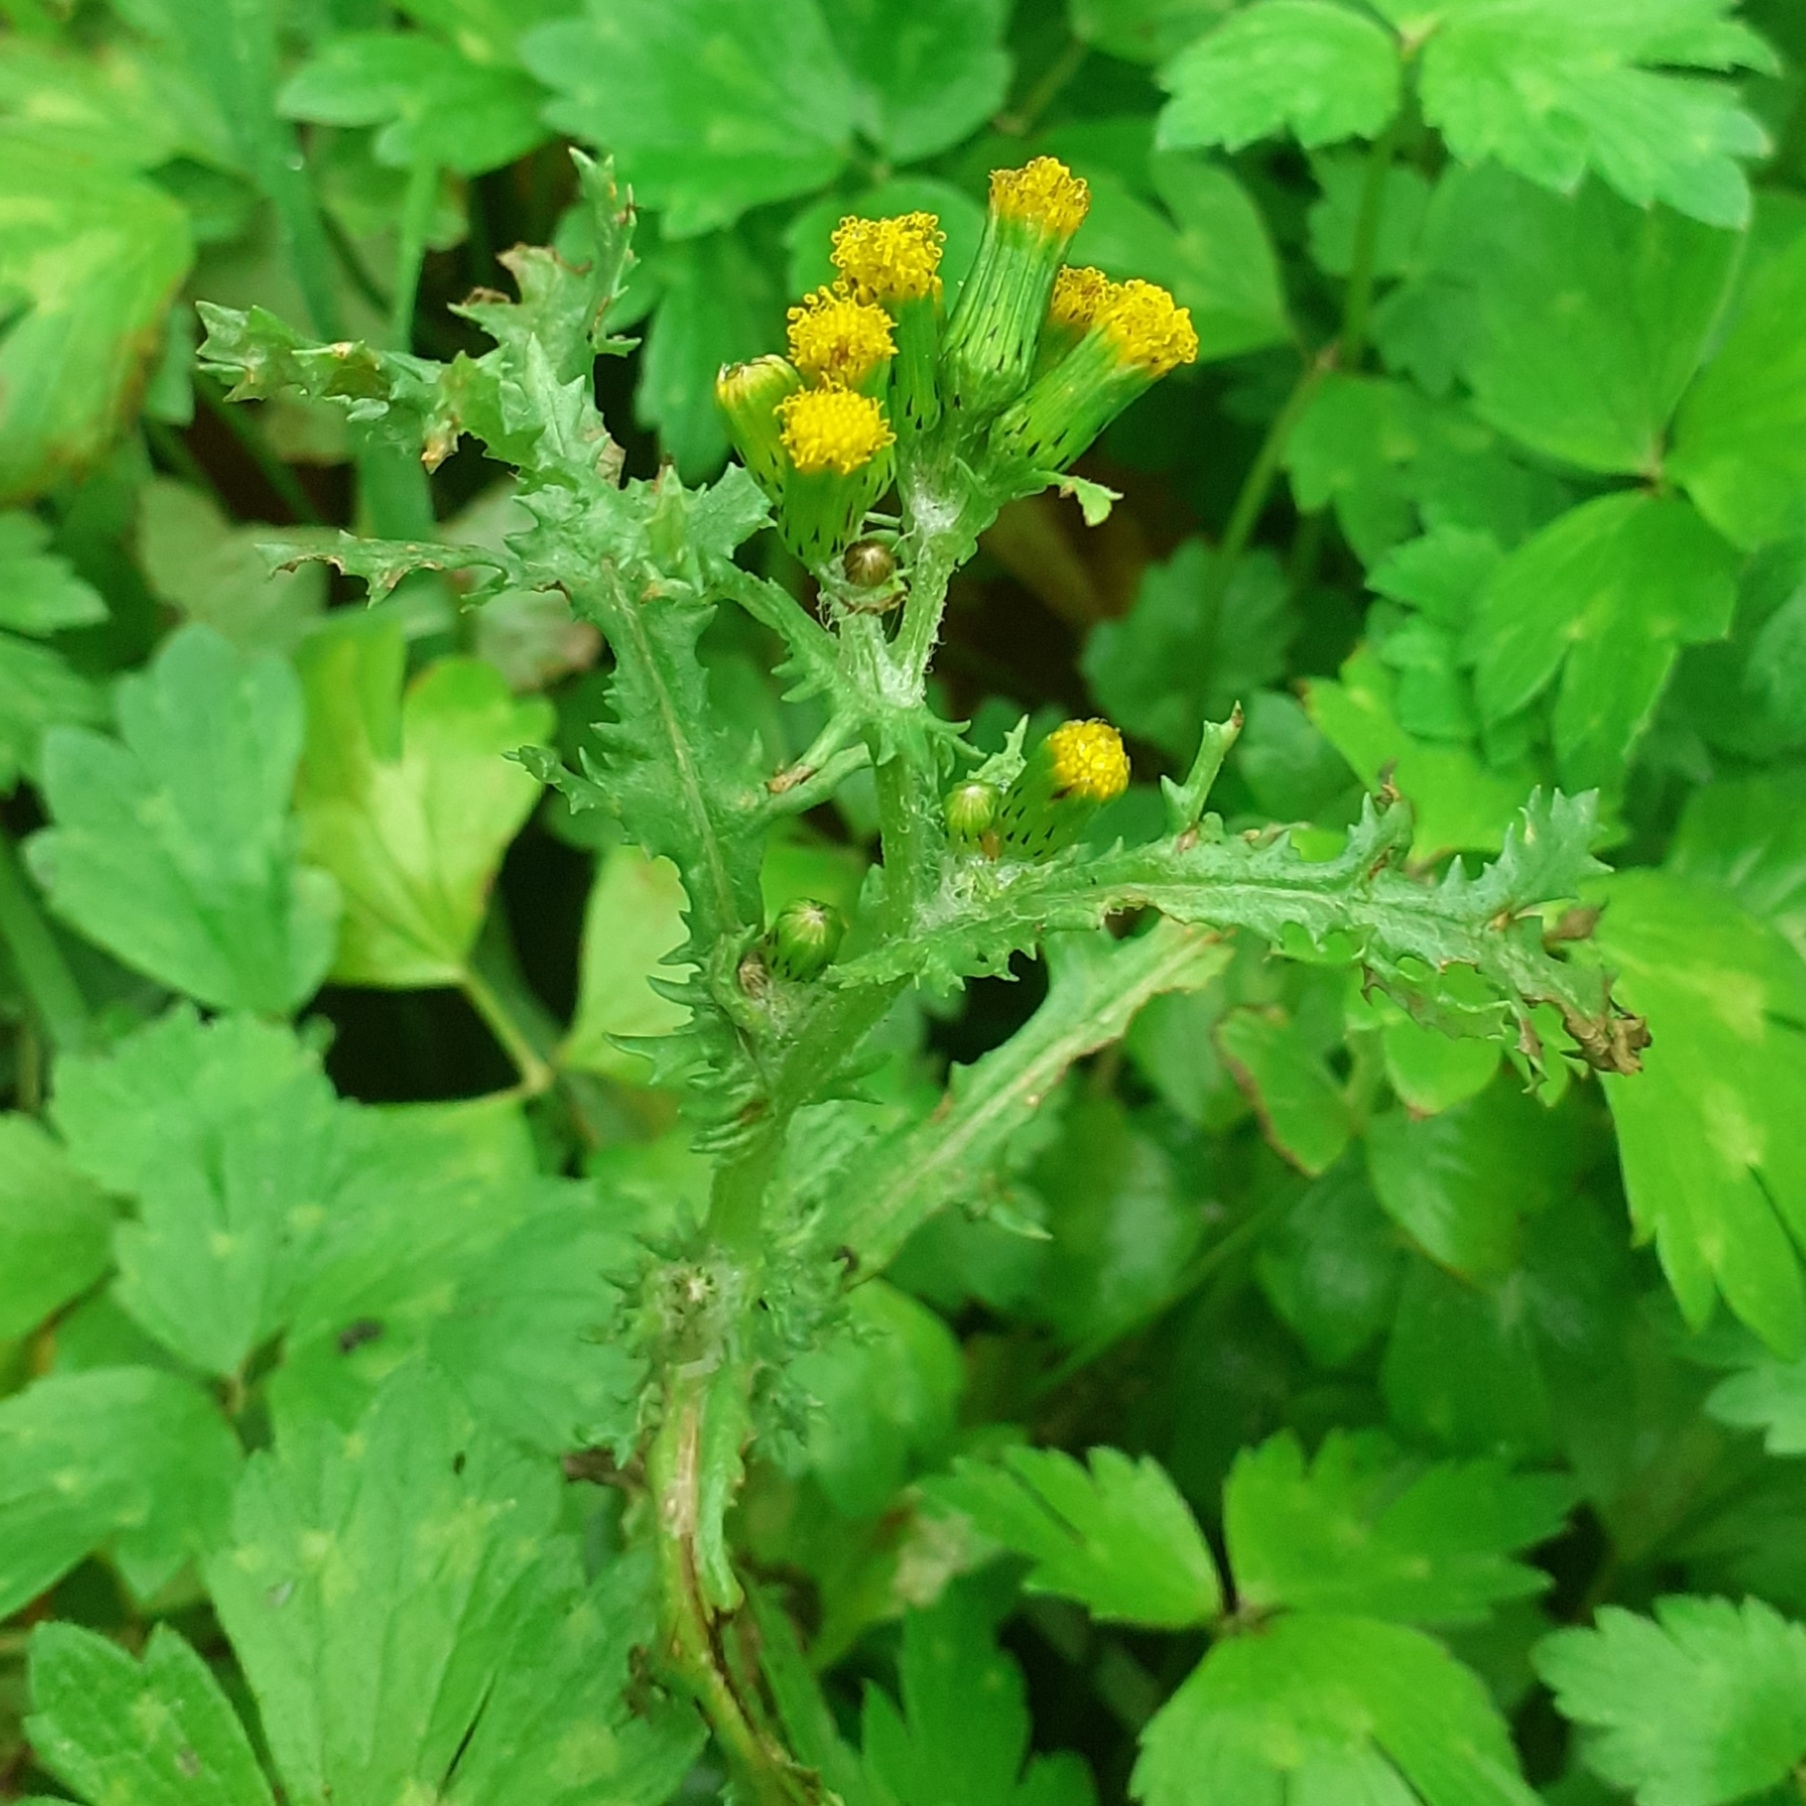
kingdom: Plantae
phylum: Tracheophyta
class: Magnoliopsida
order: Asterales
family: Asteraceae
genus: Senecio
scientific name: Senecio vulgaris
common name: Old-man-in-the-spring
